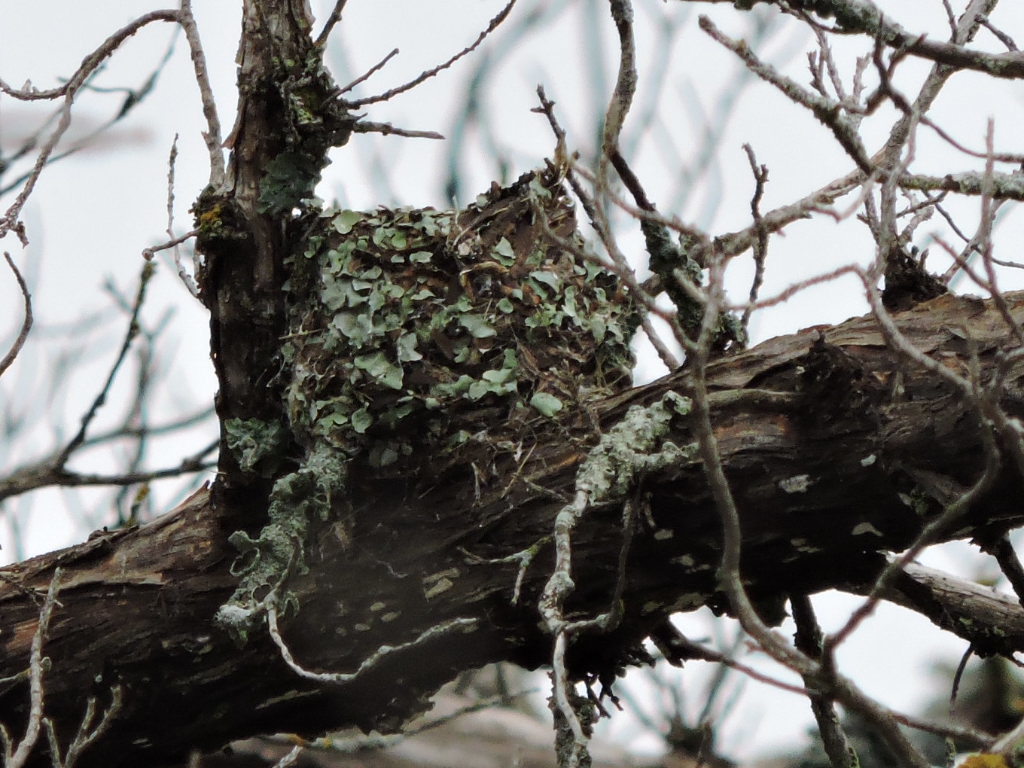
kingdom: Animalia
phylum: Chordata
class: Aves
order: Passeriformes
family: Polioptilidae
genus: Polioptila
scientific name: Polioptila caerulea
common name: Blue-gray gnatcatcher
